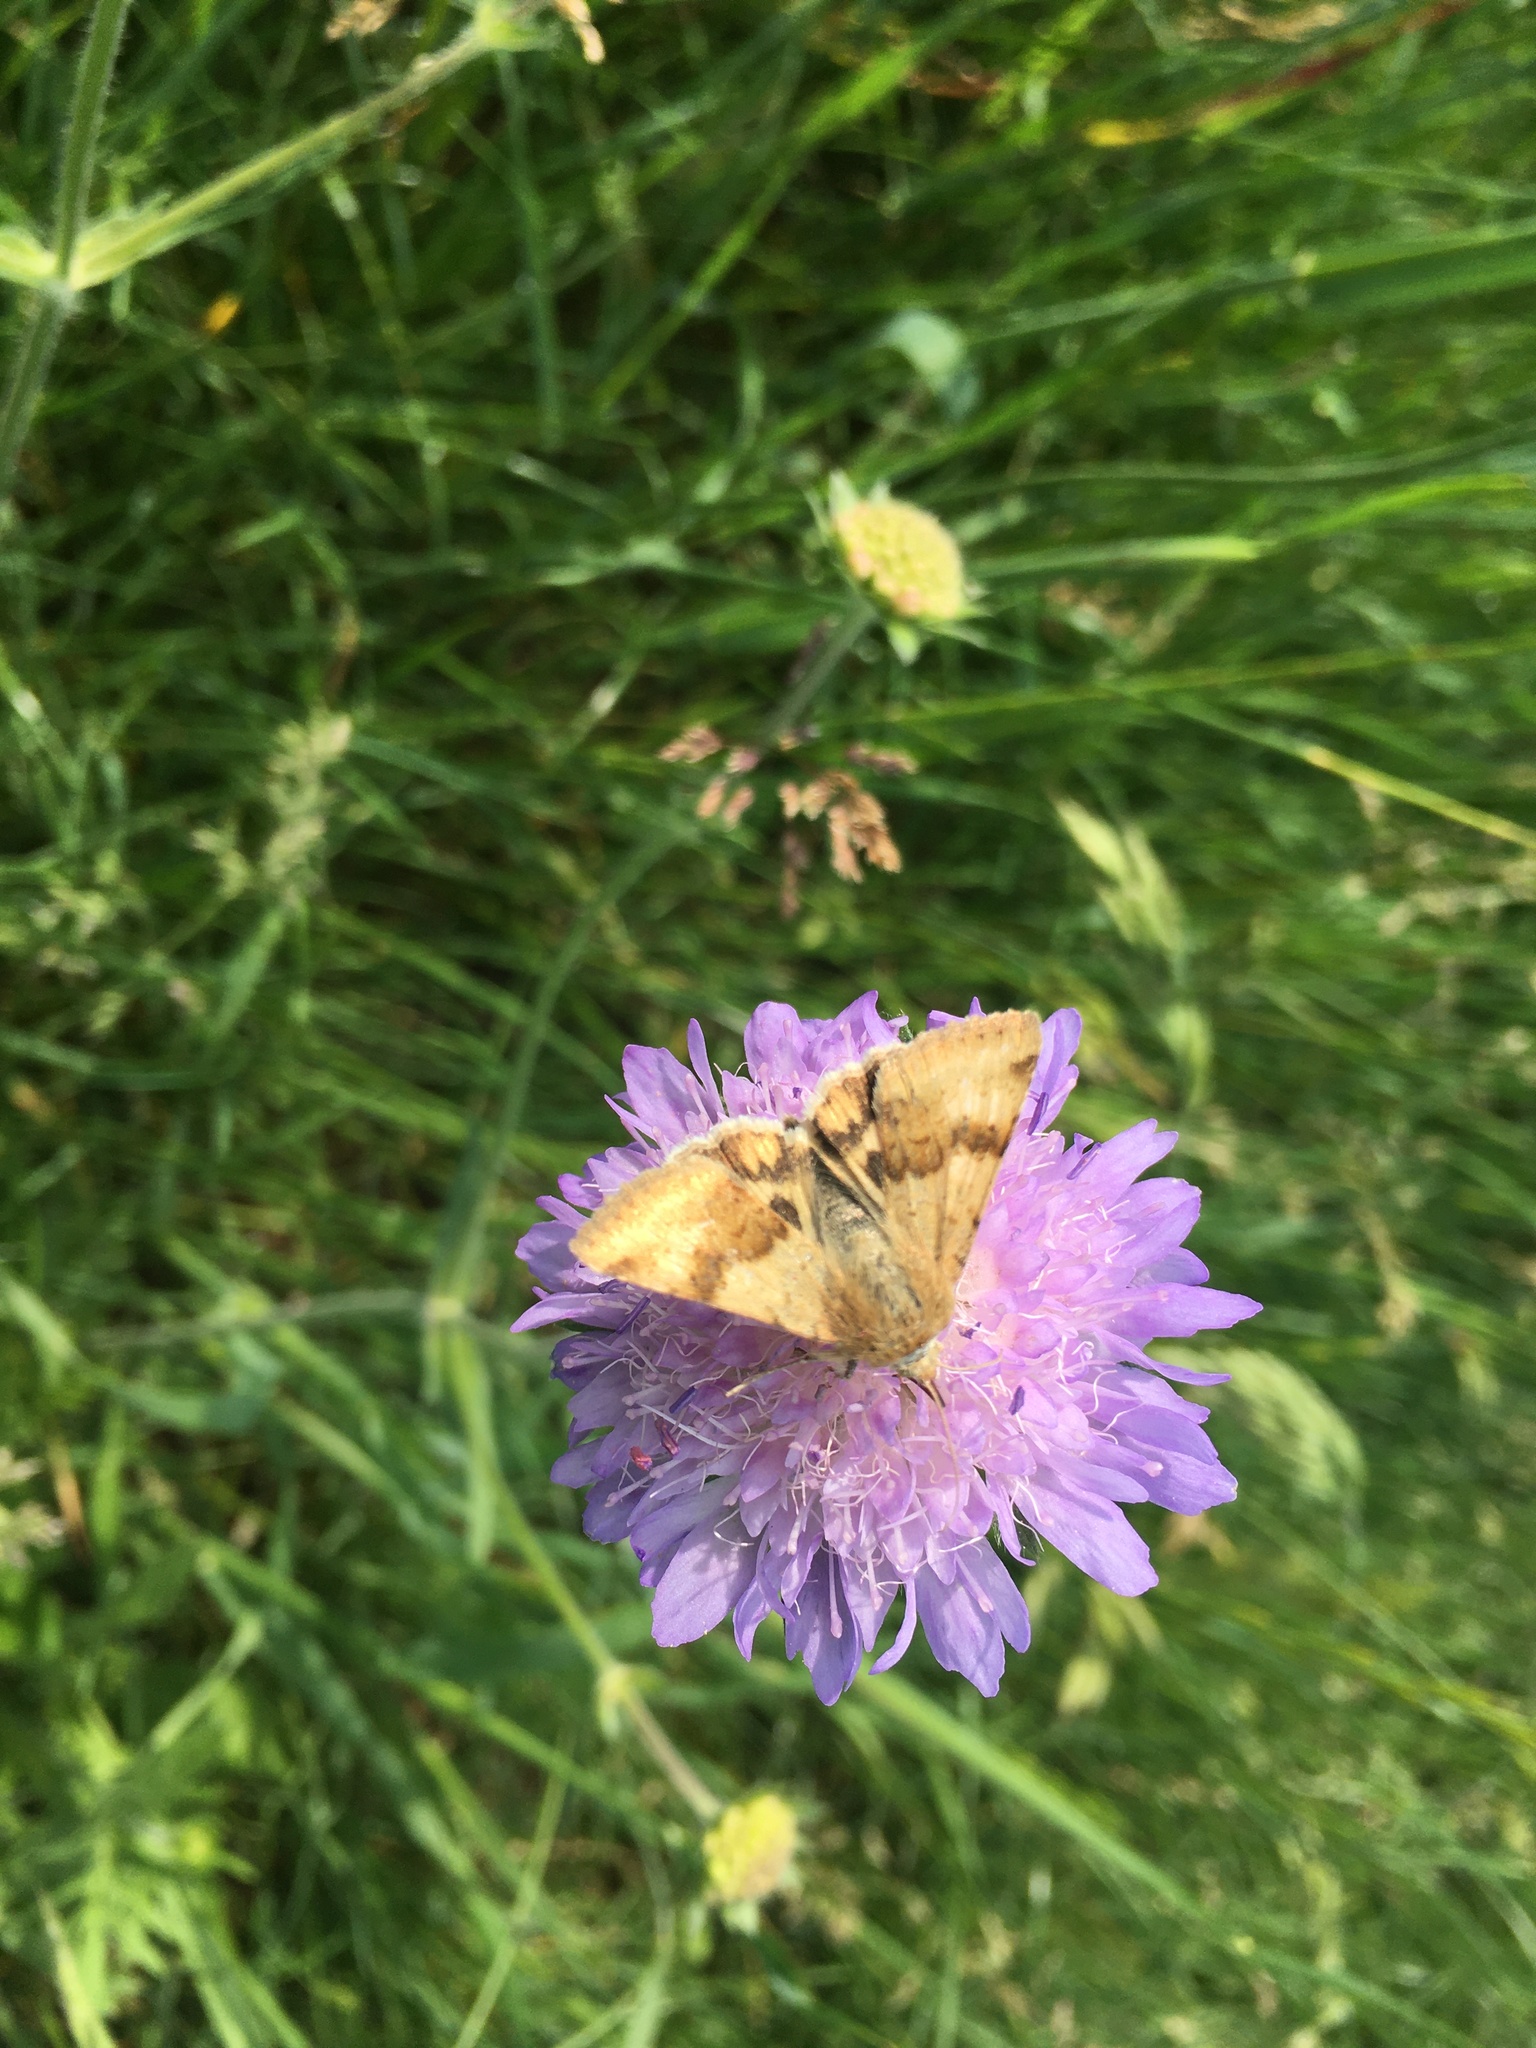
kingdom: Animalia
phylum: Arthropoda
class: Insecta
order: Lepidoptera
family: Erebidae
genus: Euclidia
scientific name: Euclidia glyphica
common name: Burnet companion
